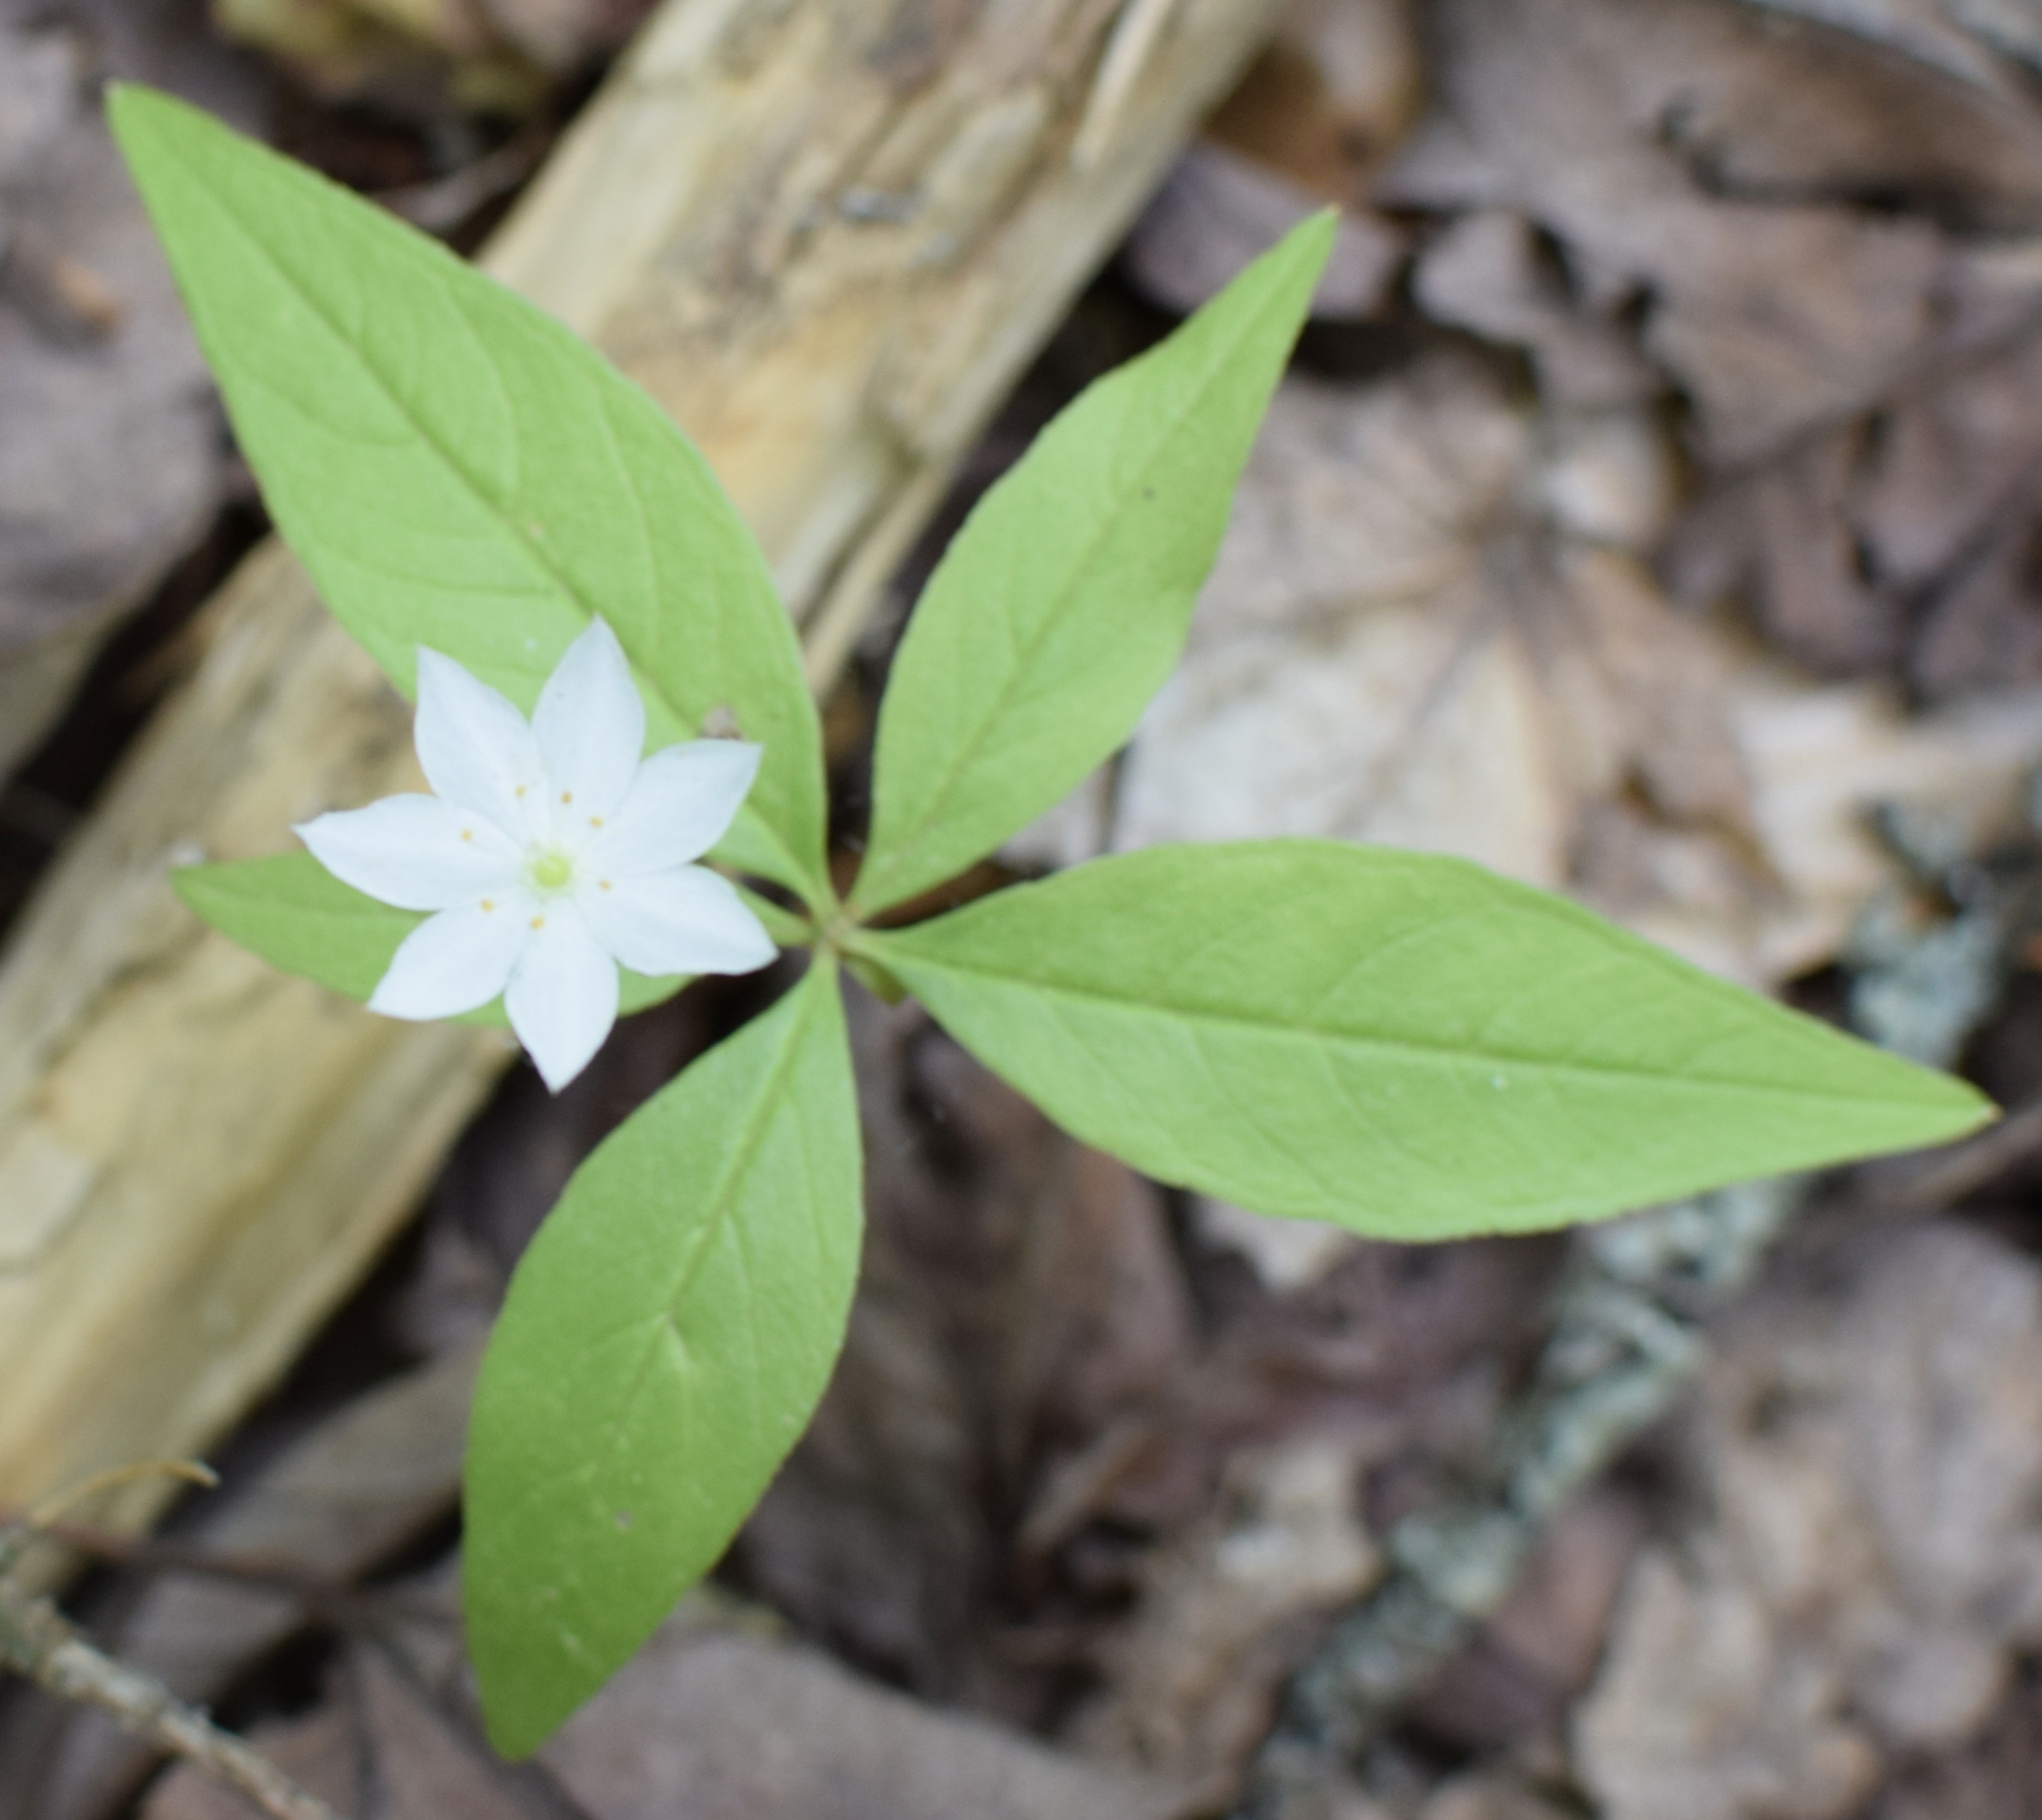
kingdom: Plantae
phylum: Tracheophyta
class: Magnoliopsida
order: Ericales
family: Primulaceae
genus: Lysimachia
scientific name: Lysimachia borealis
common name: American starflower
